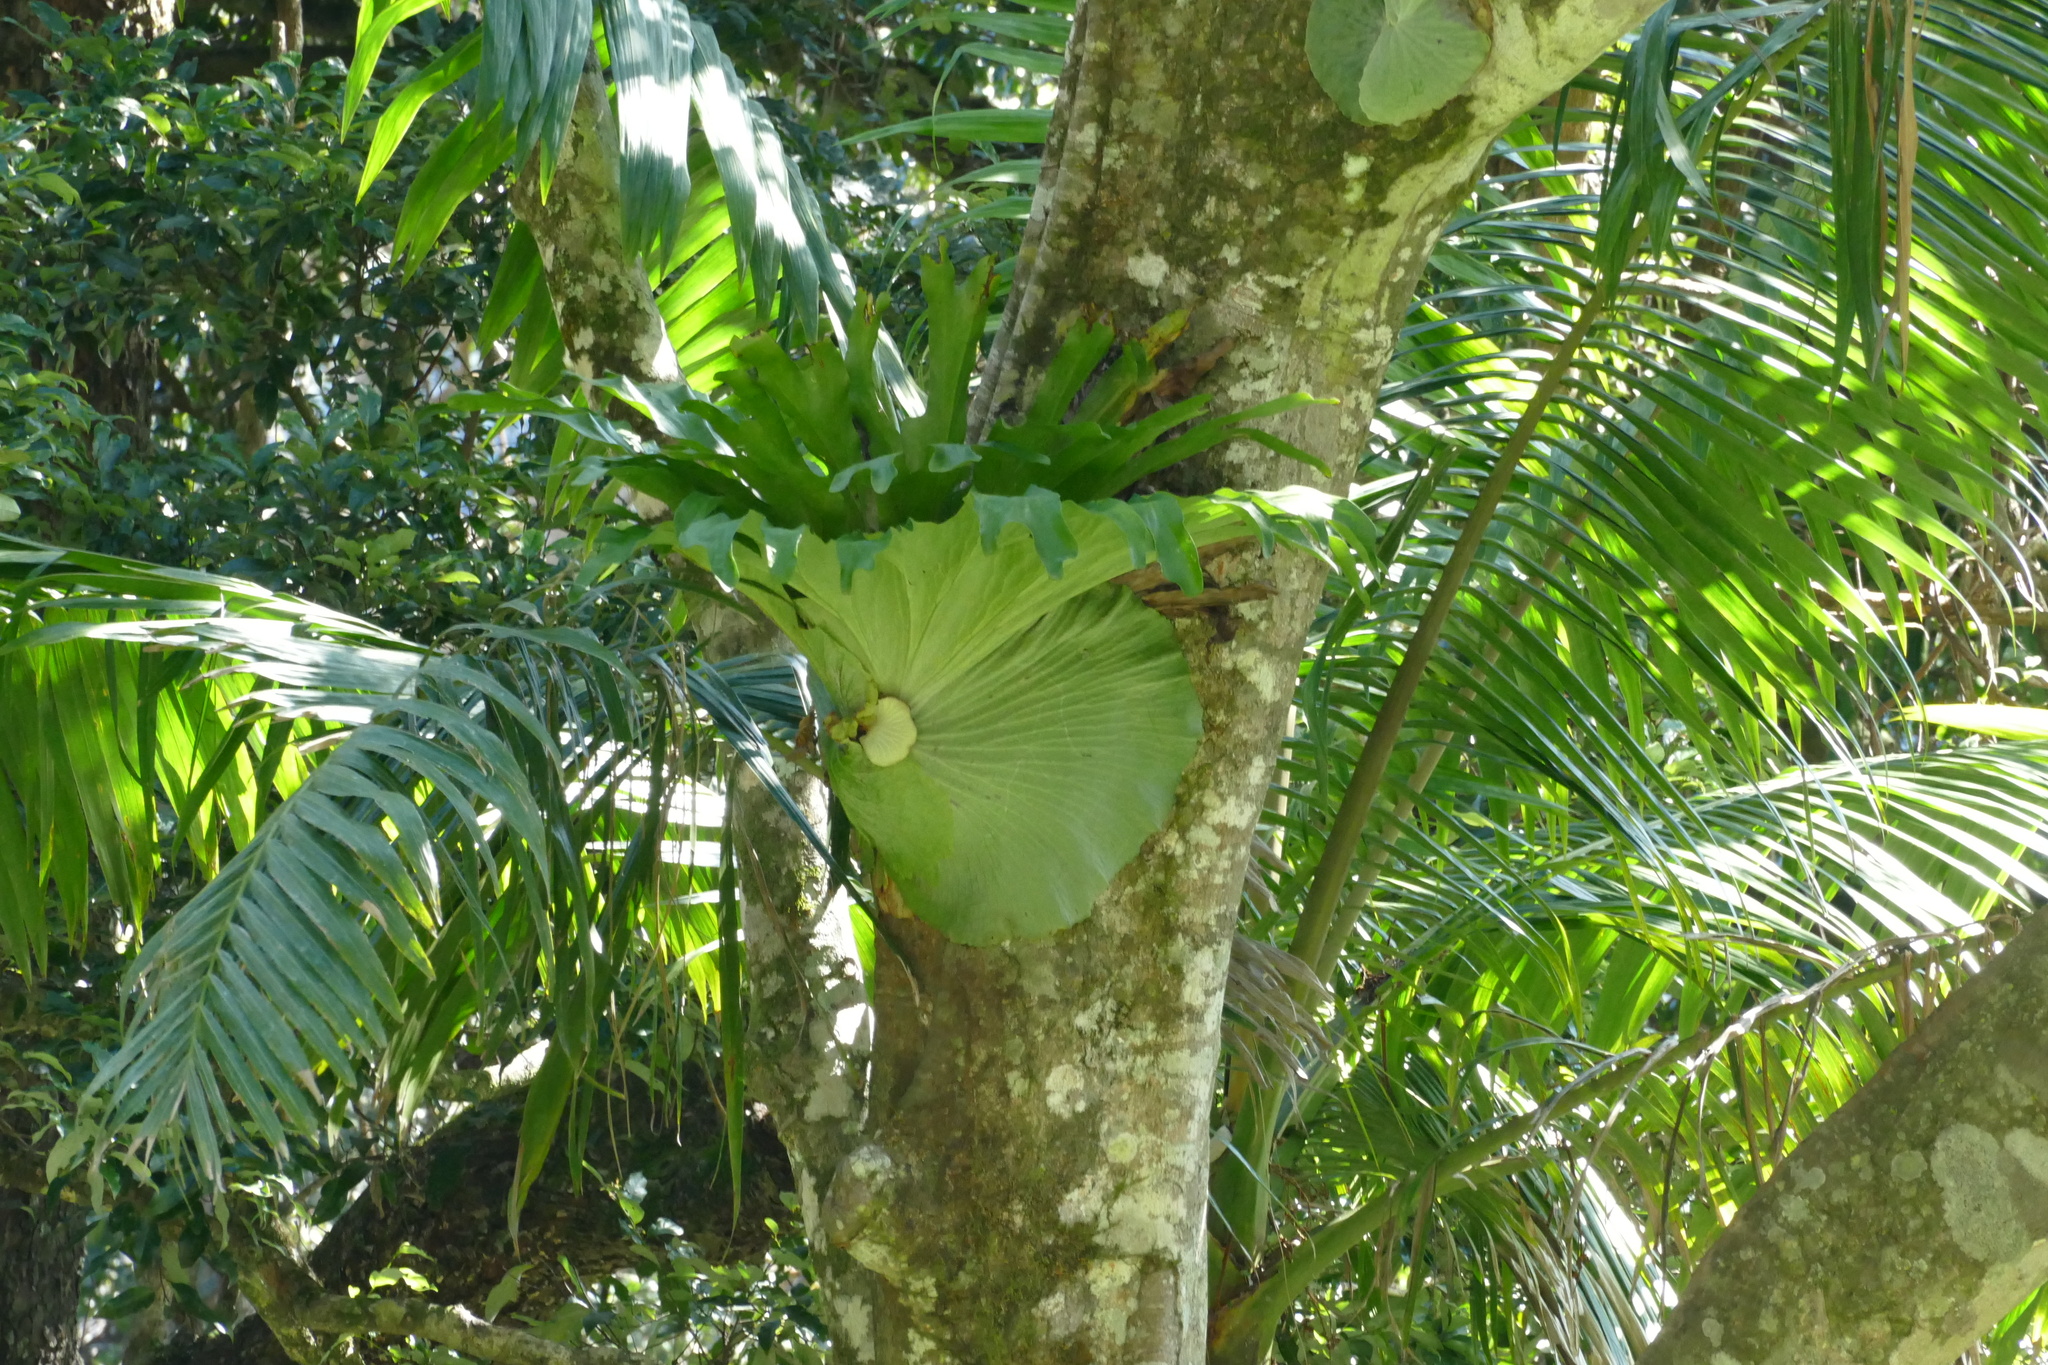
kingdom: Plantae
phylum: Tracheophyta
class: Polypodiopsida
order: Polypodiales
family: Polypodiaceae
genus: Platycerium
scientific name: Platycerium superbum
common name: Staghorn fern
